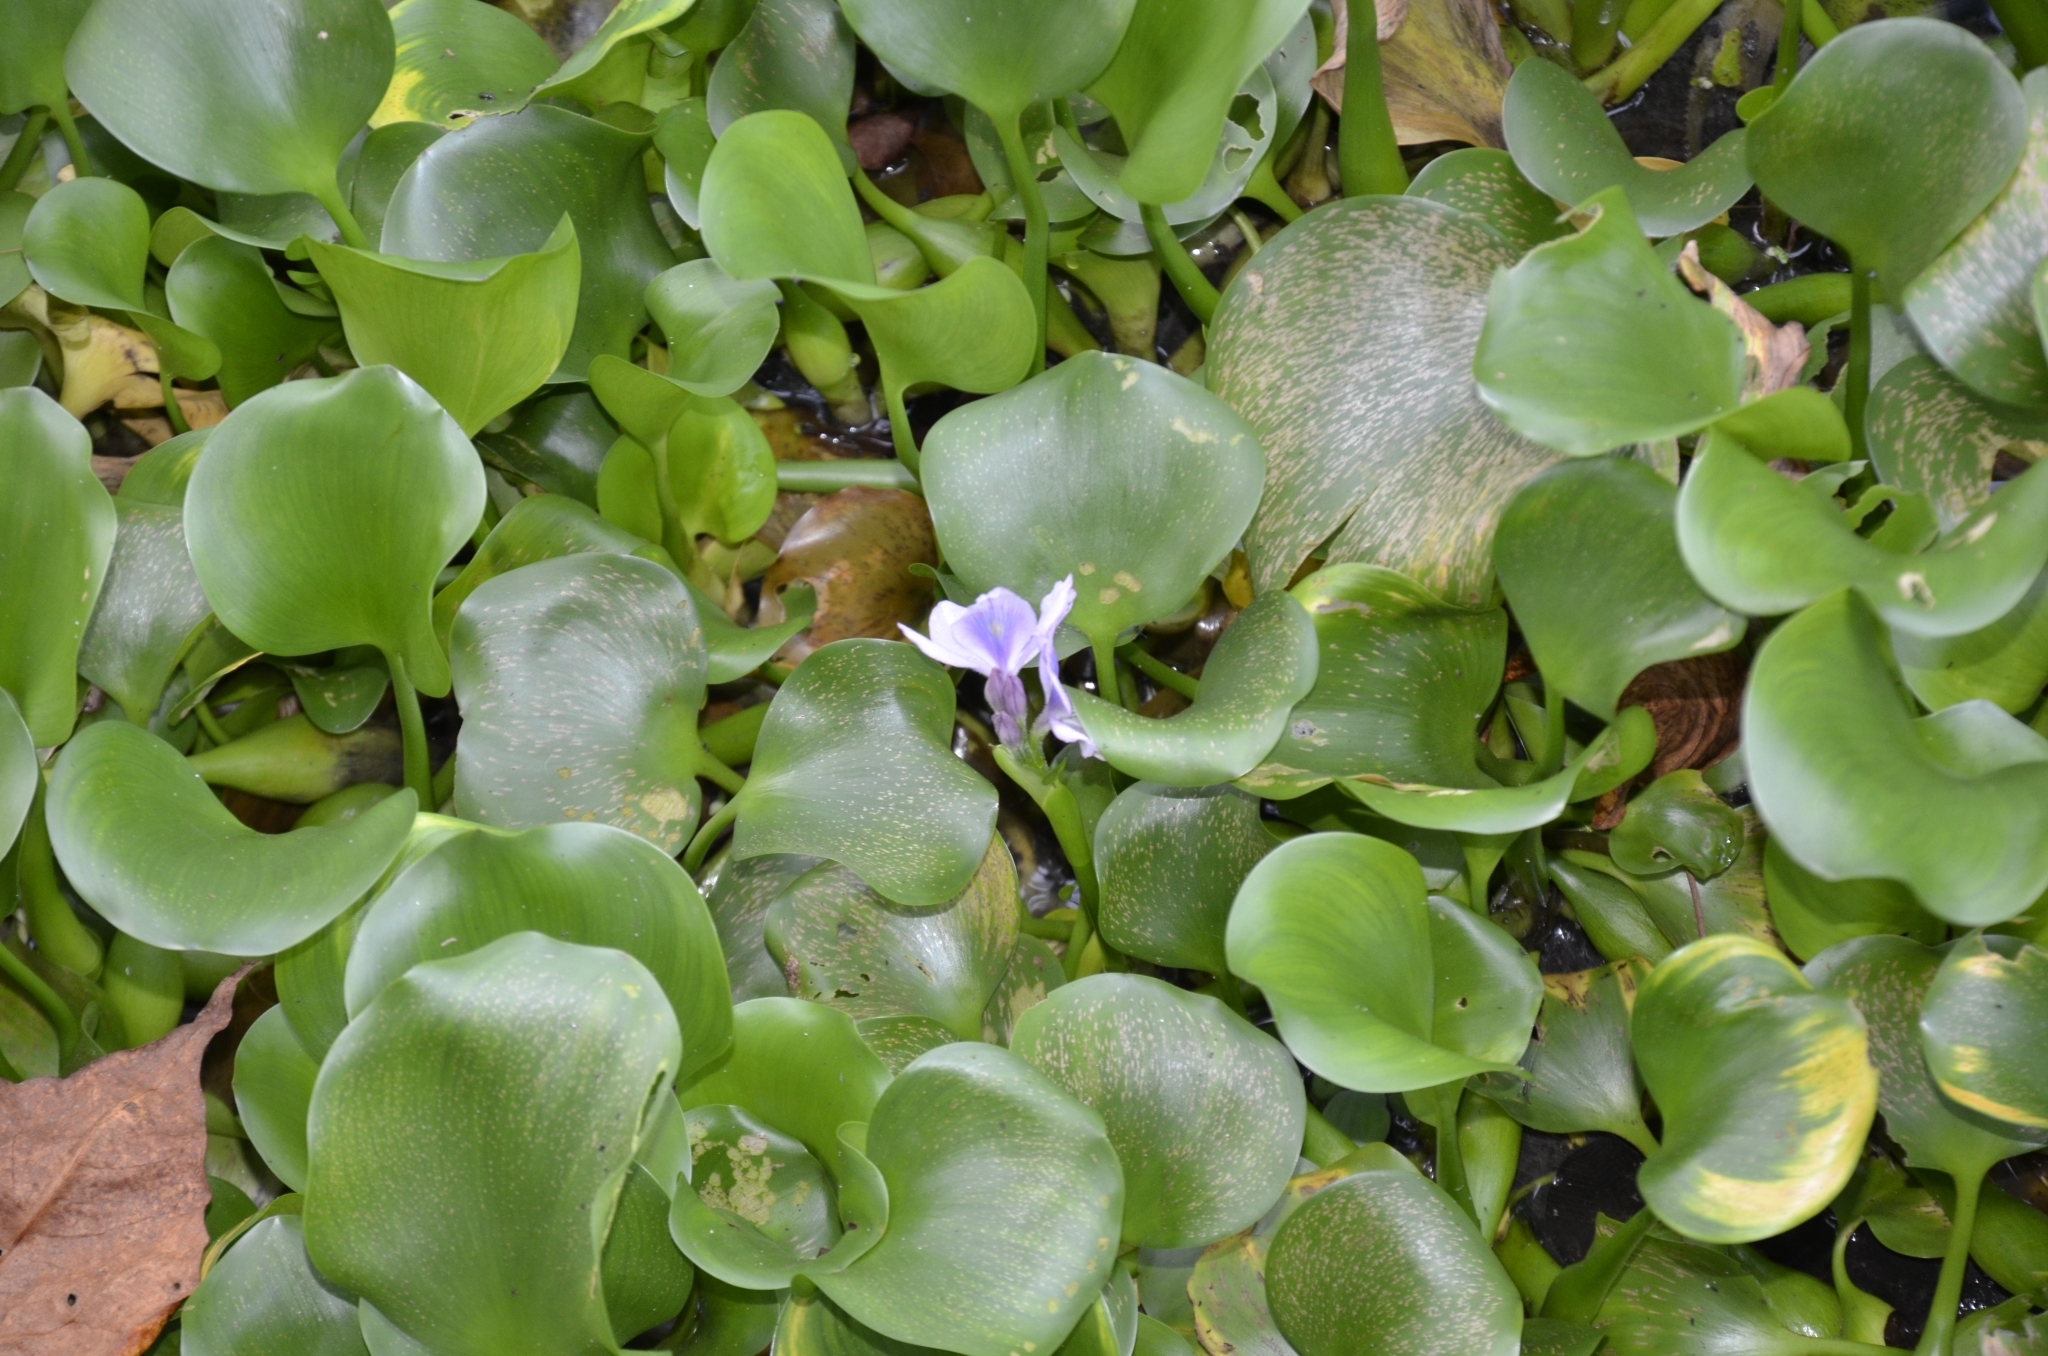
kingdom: Plantae
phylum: Tracheophyta
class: Liliopsida
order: Commelinales
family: Pontederiaceae
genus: Pontederia
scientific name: Pontederia crassipes
